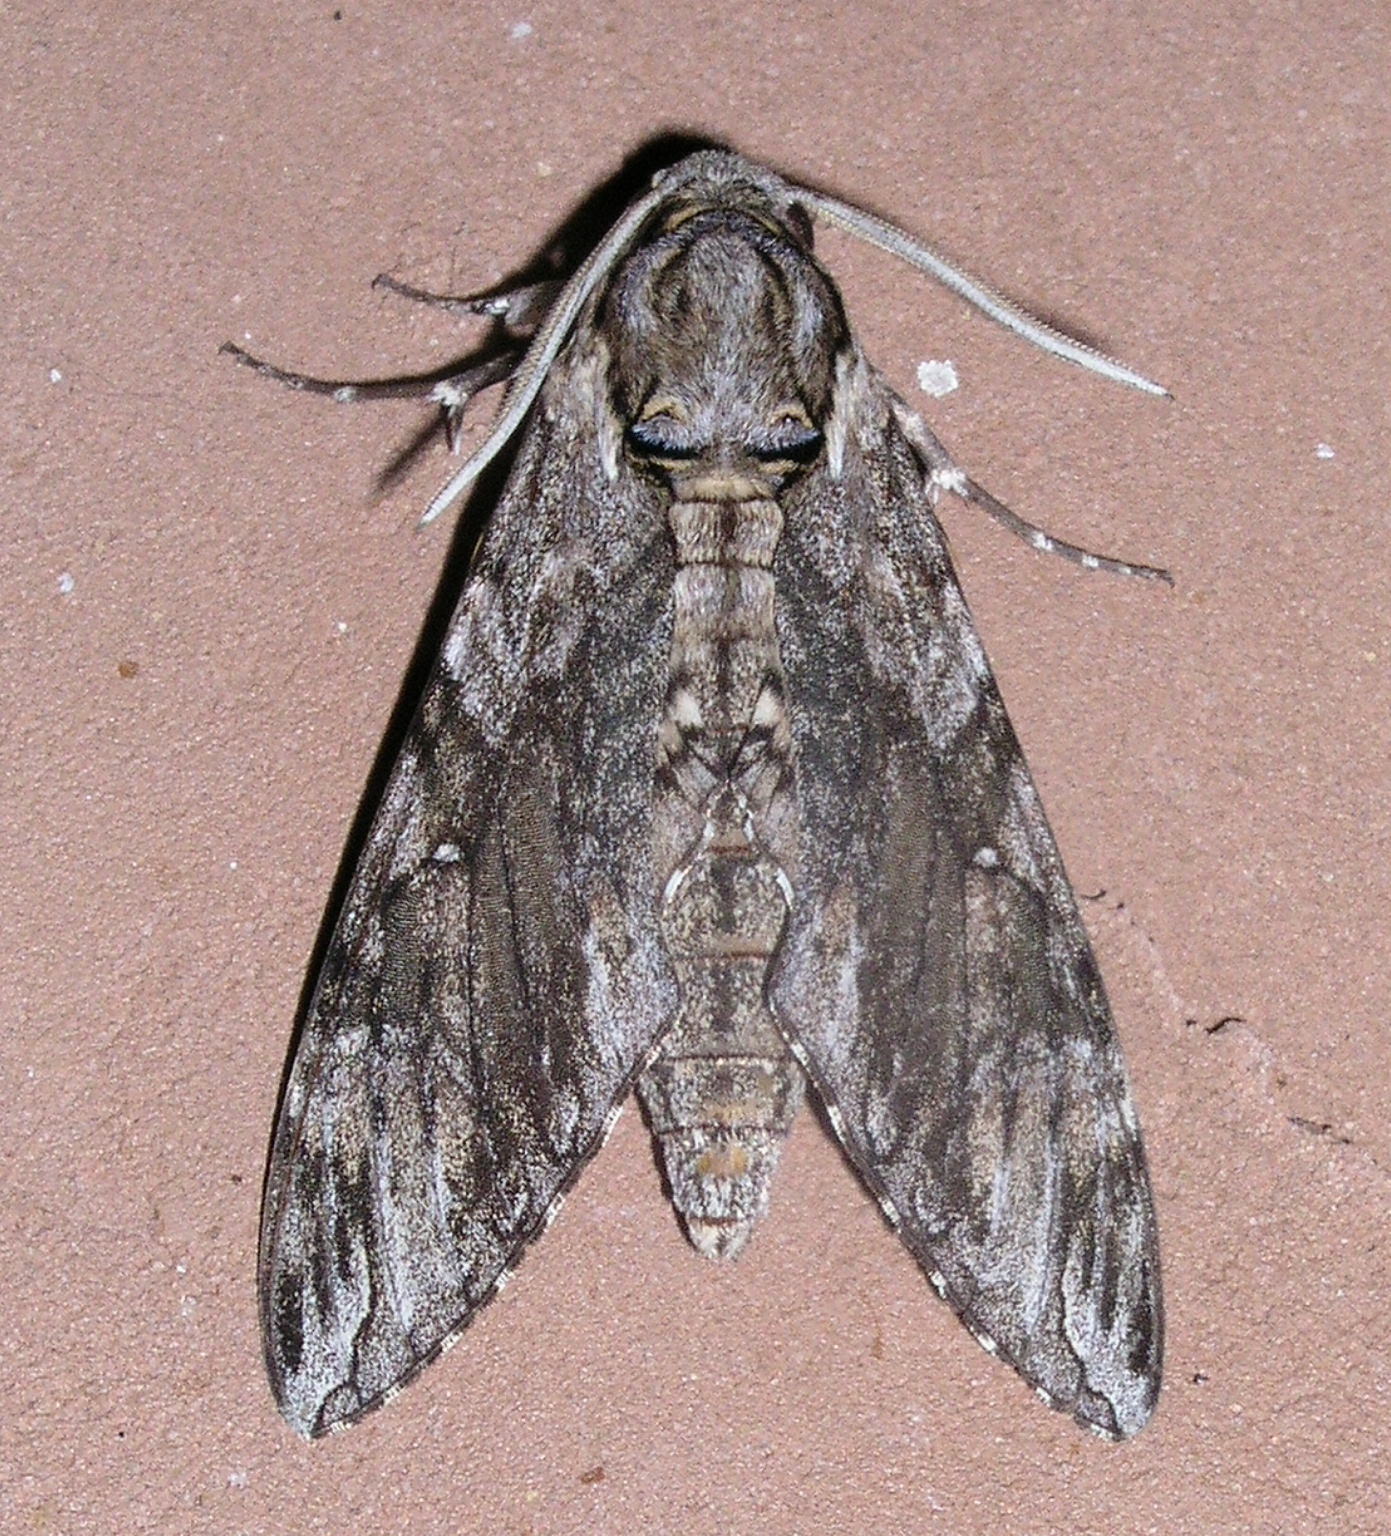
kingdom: Animalia
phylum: Arthropoda
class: Insecta
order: Lepidoptera
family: Sphingidae
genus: Agrius
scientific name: Agrius godarti
